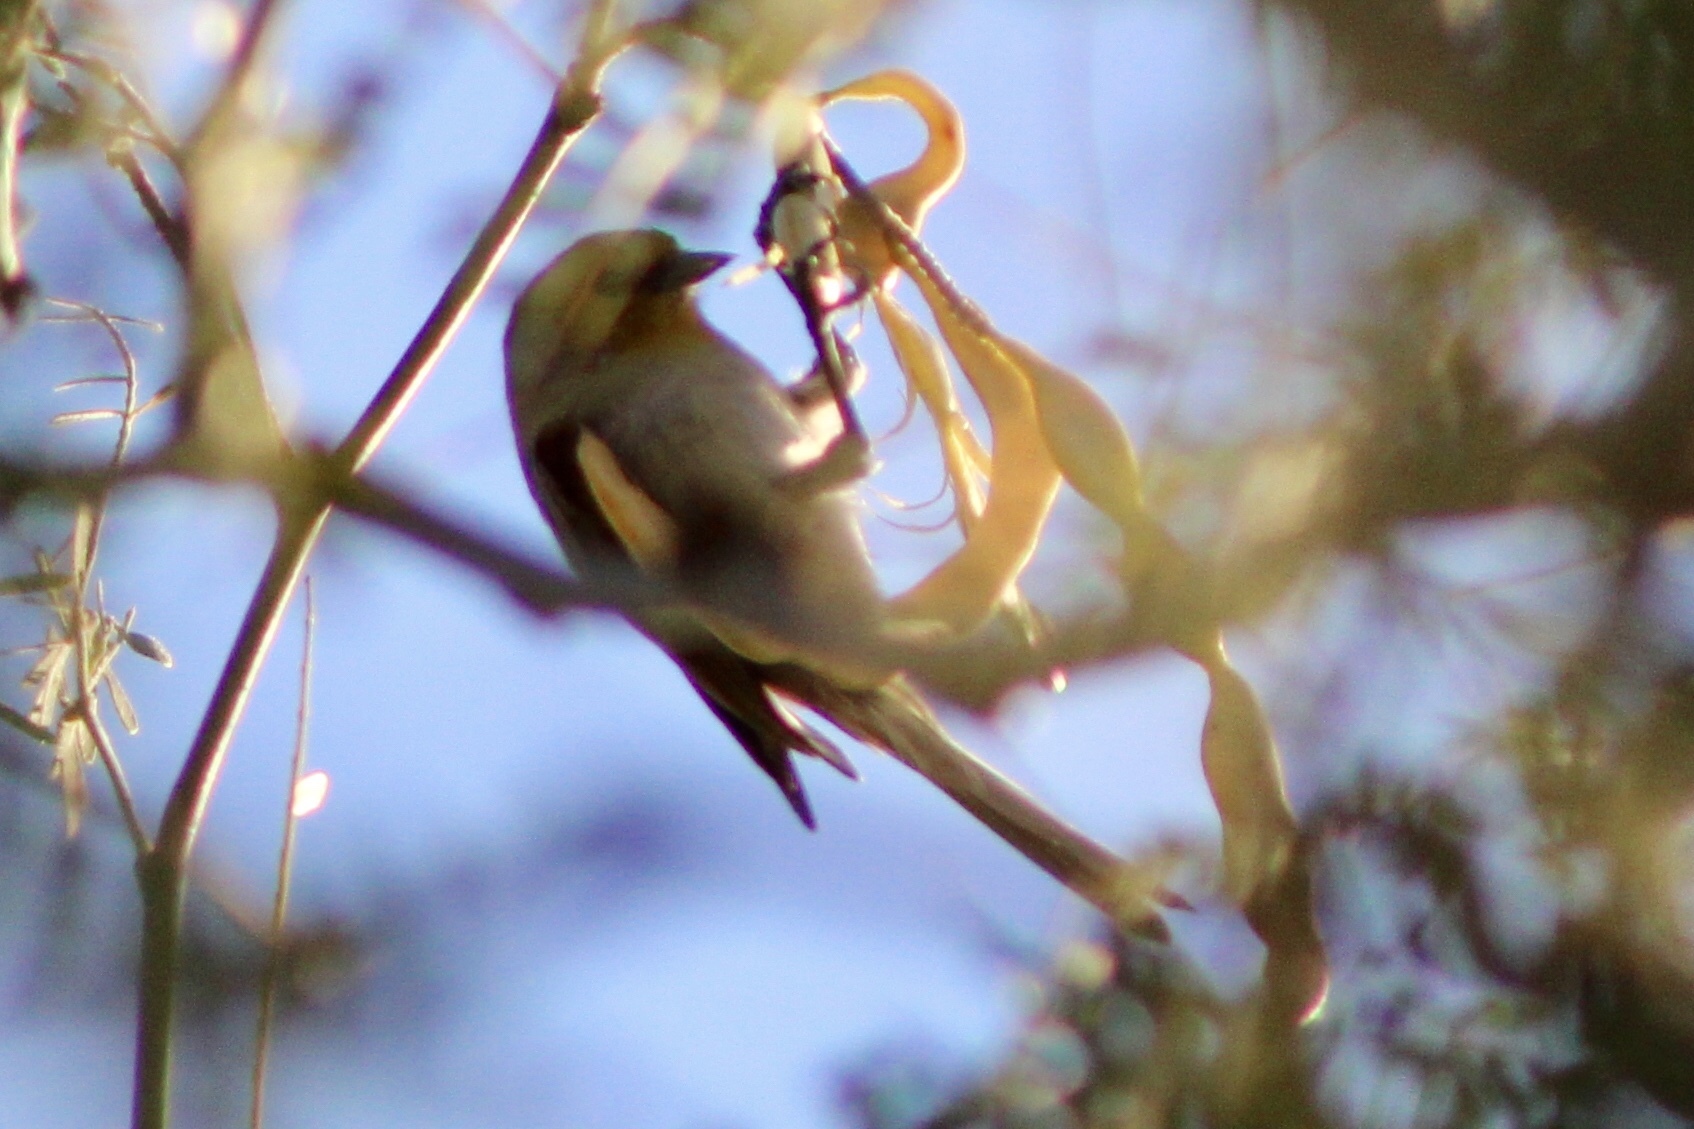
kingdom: Animalia
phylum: Chordata
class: Aves
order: Passeriformes
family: Remizidae
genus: Auriparus
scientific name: Auriparus flaviceps
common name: Verdin
